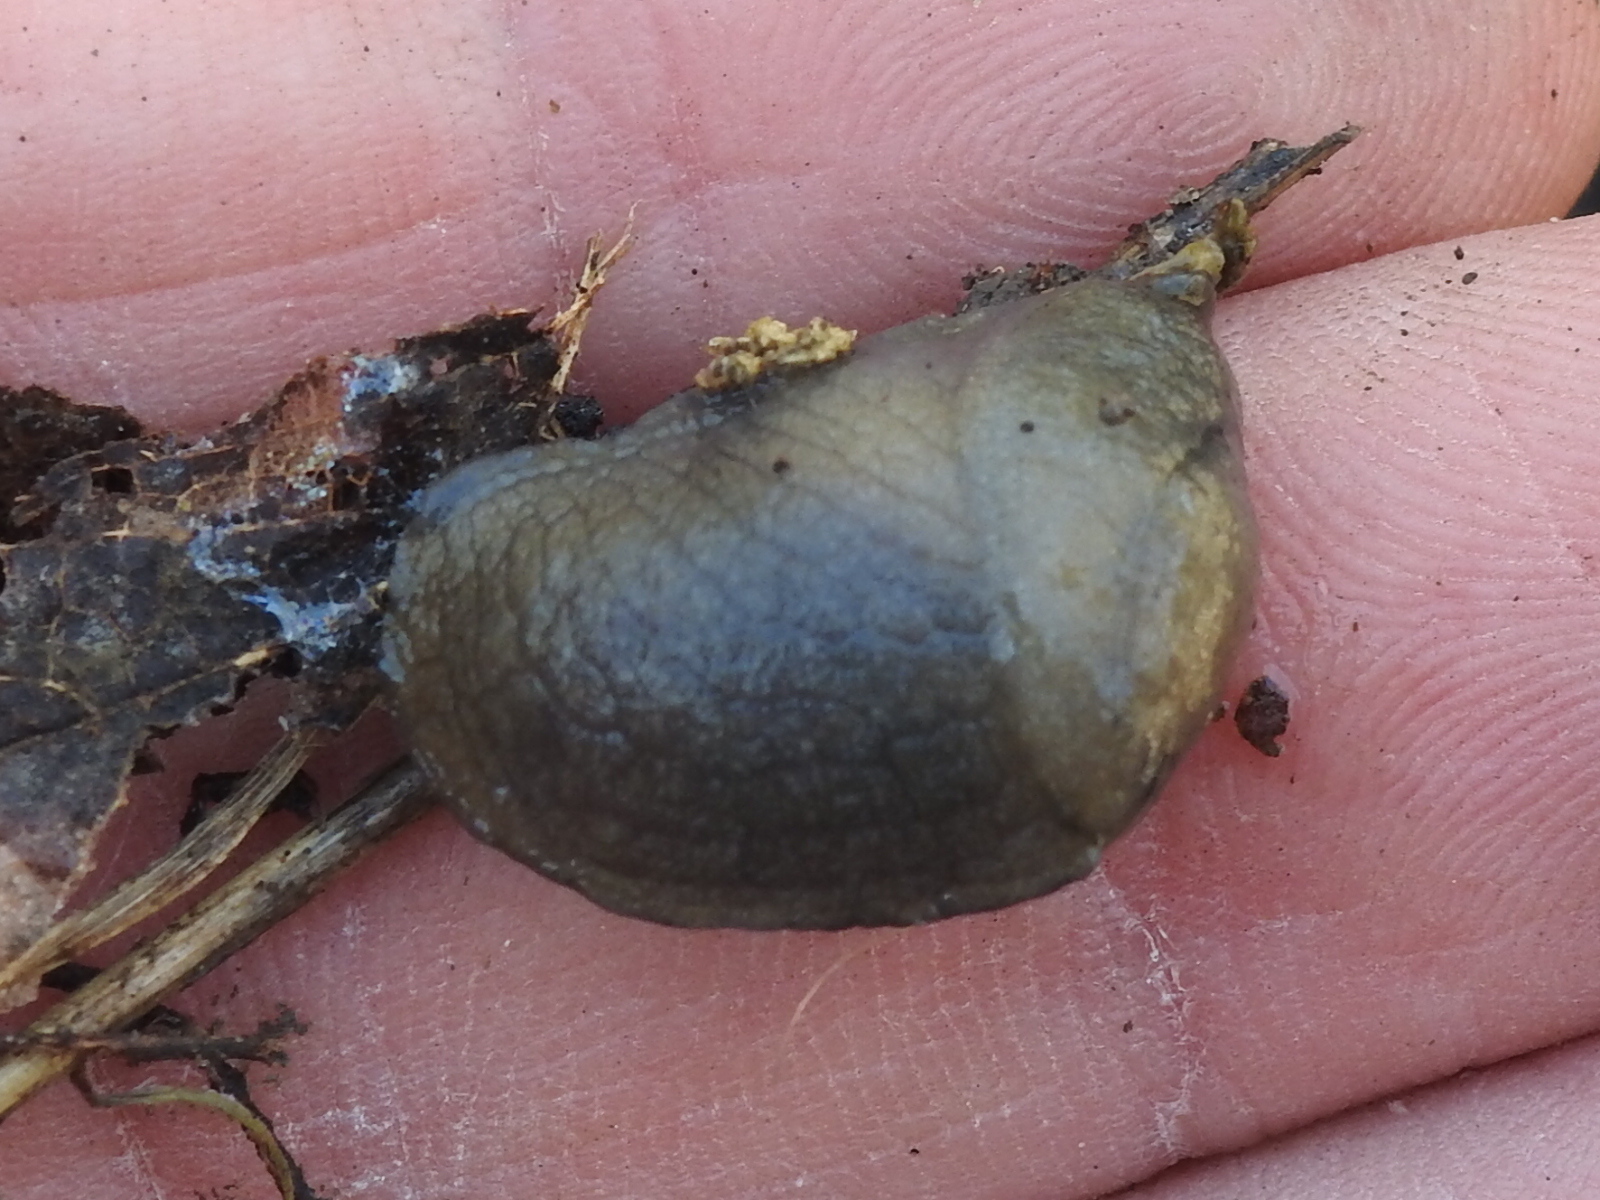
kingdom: Animalia
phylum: Mollusca
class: Gastropoda
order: Stylommatophora
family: Milacidae
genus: Milax
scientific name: Milax gagates
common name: Greenhouse slug
